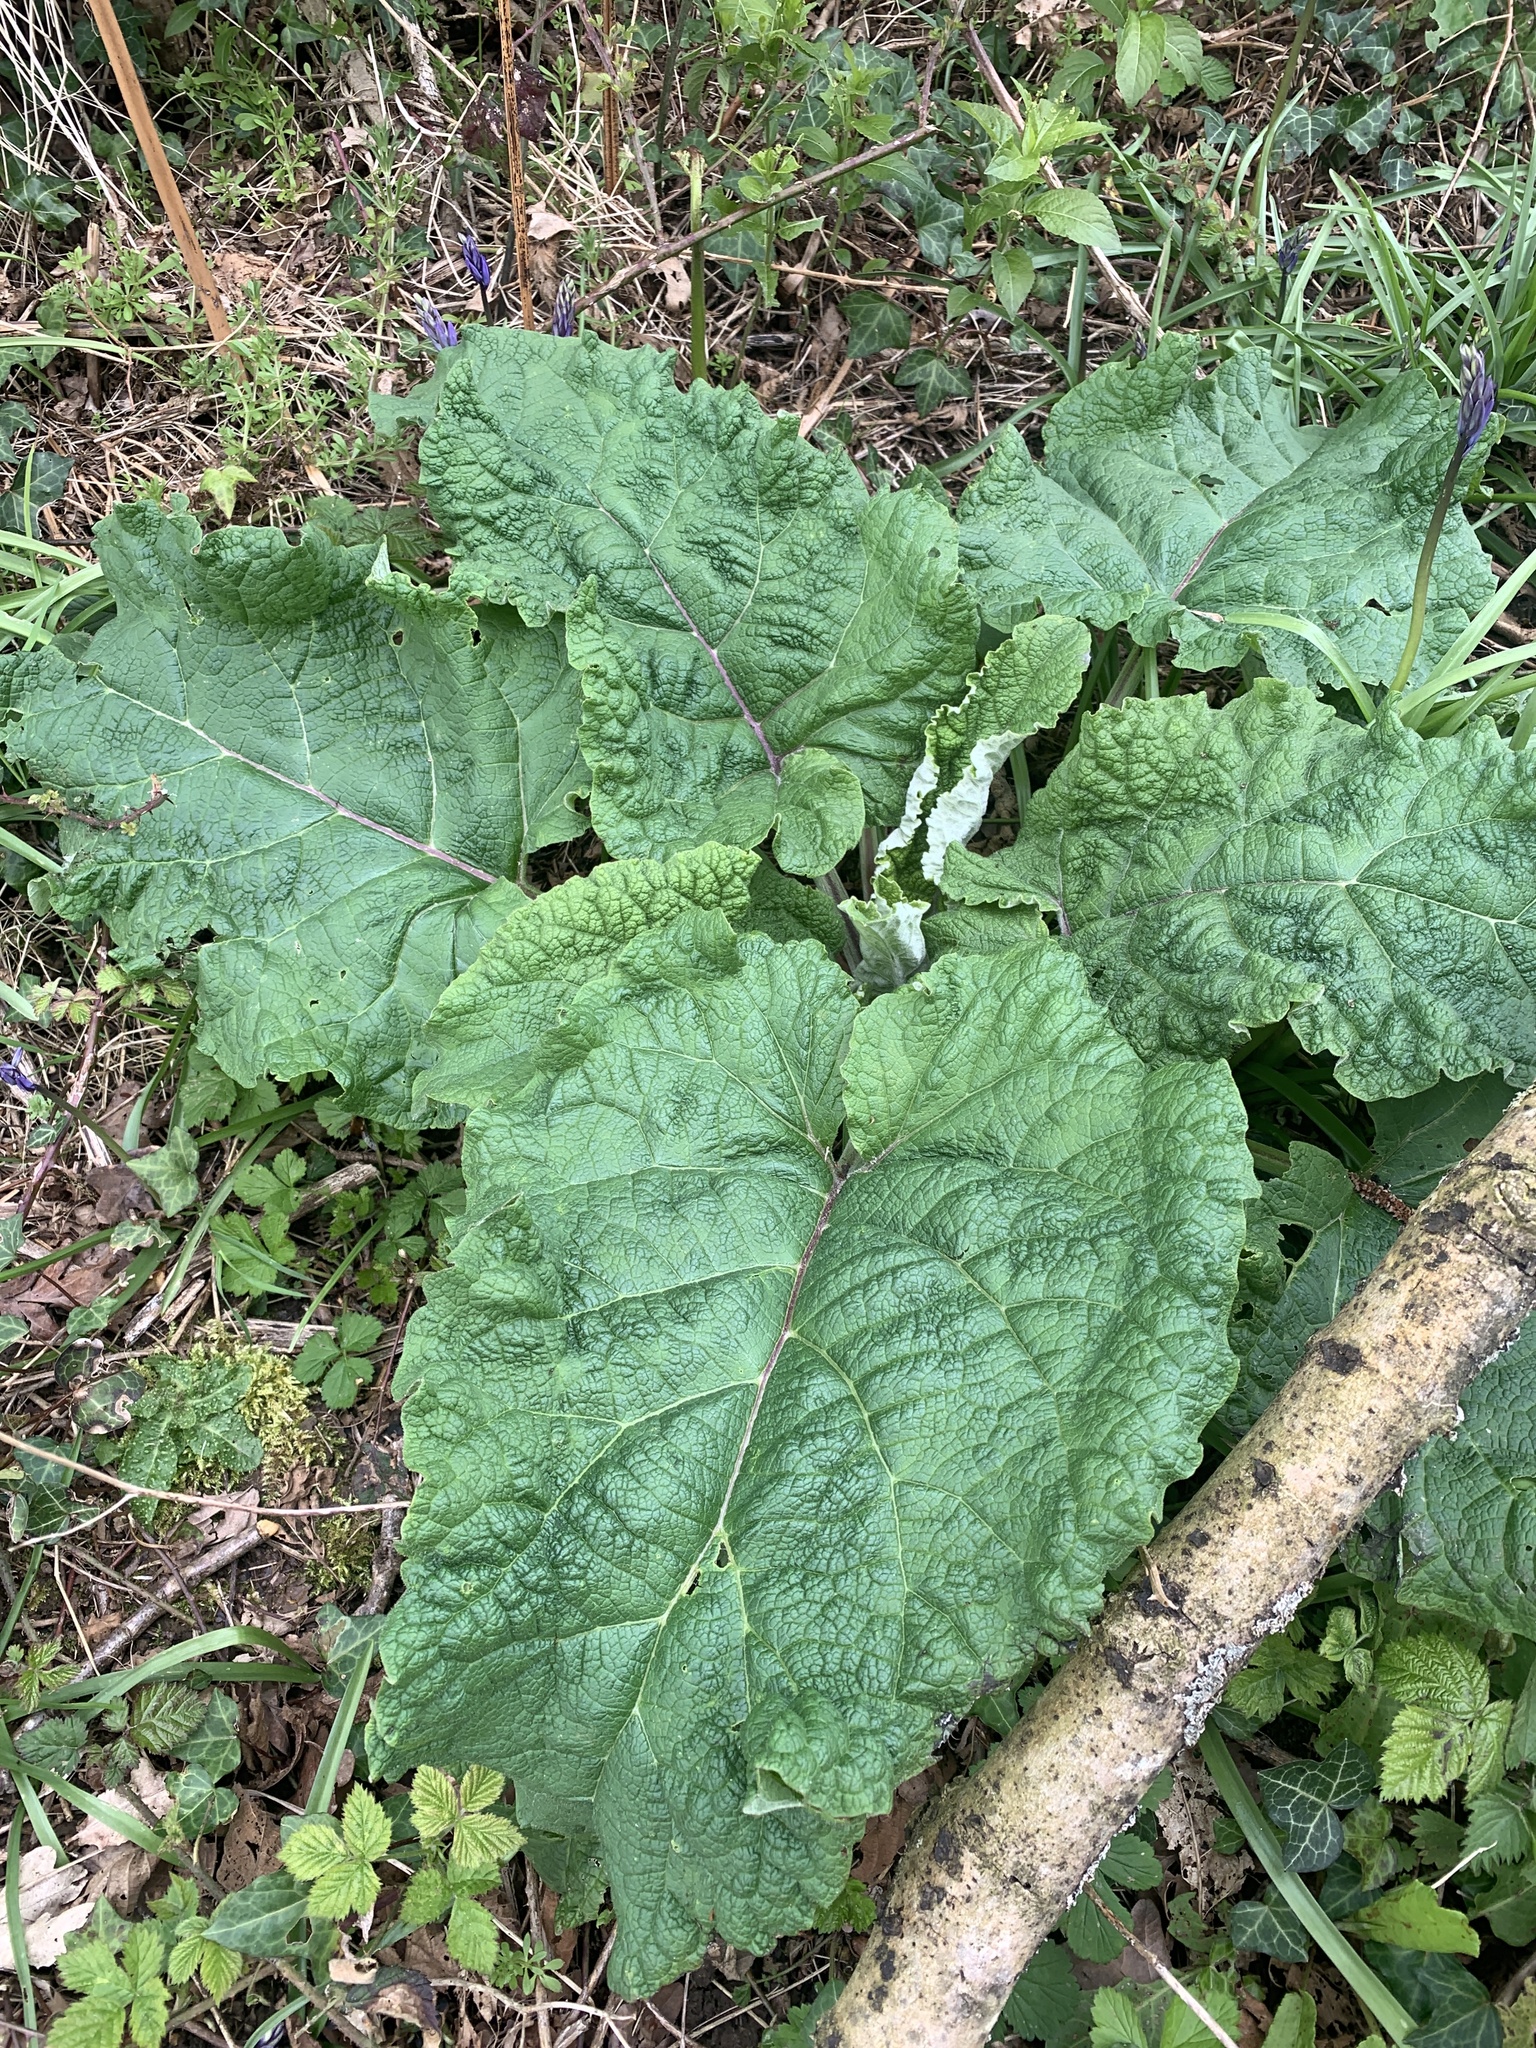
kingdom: Plantae
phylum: Tracheophyta
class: Magnoliopsida
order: Asterales
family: Asteraceae
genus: Arctium
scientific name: Arctium lappa
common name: Greater burdock
